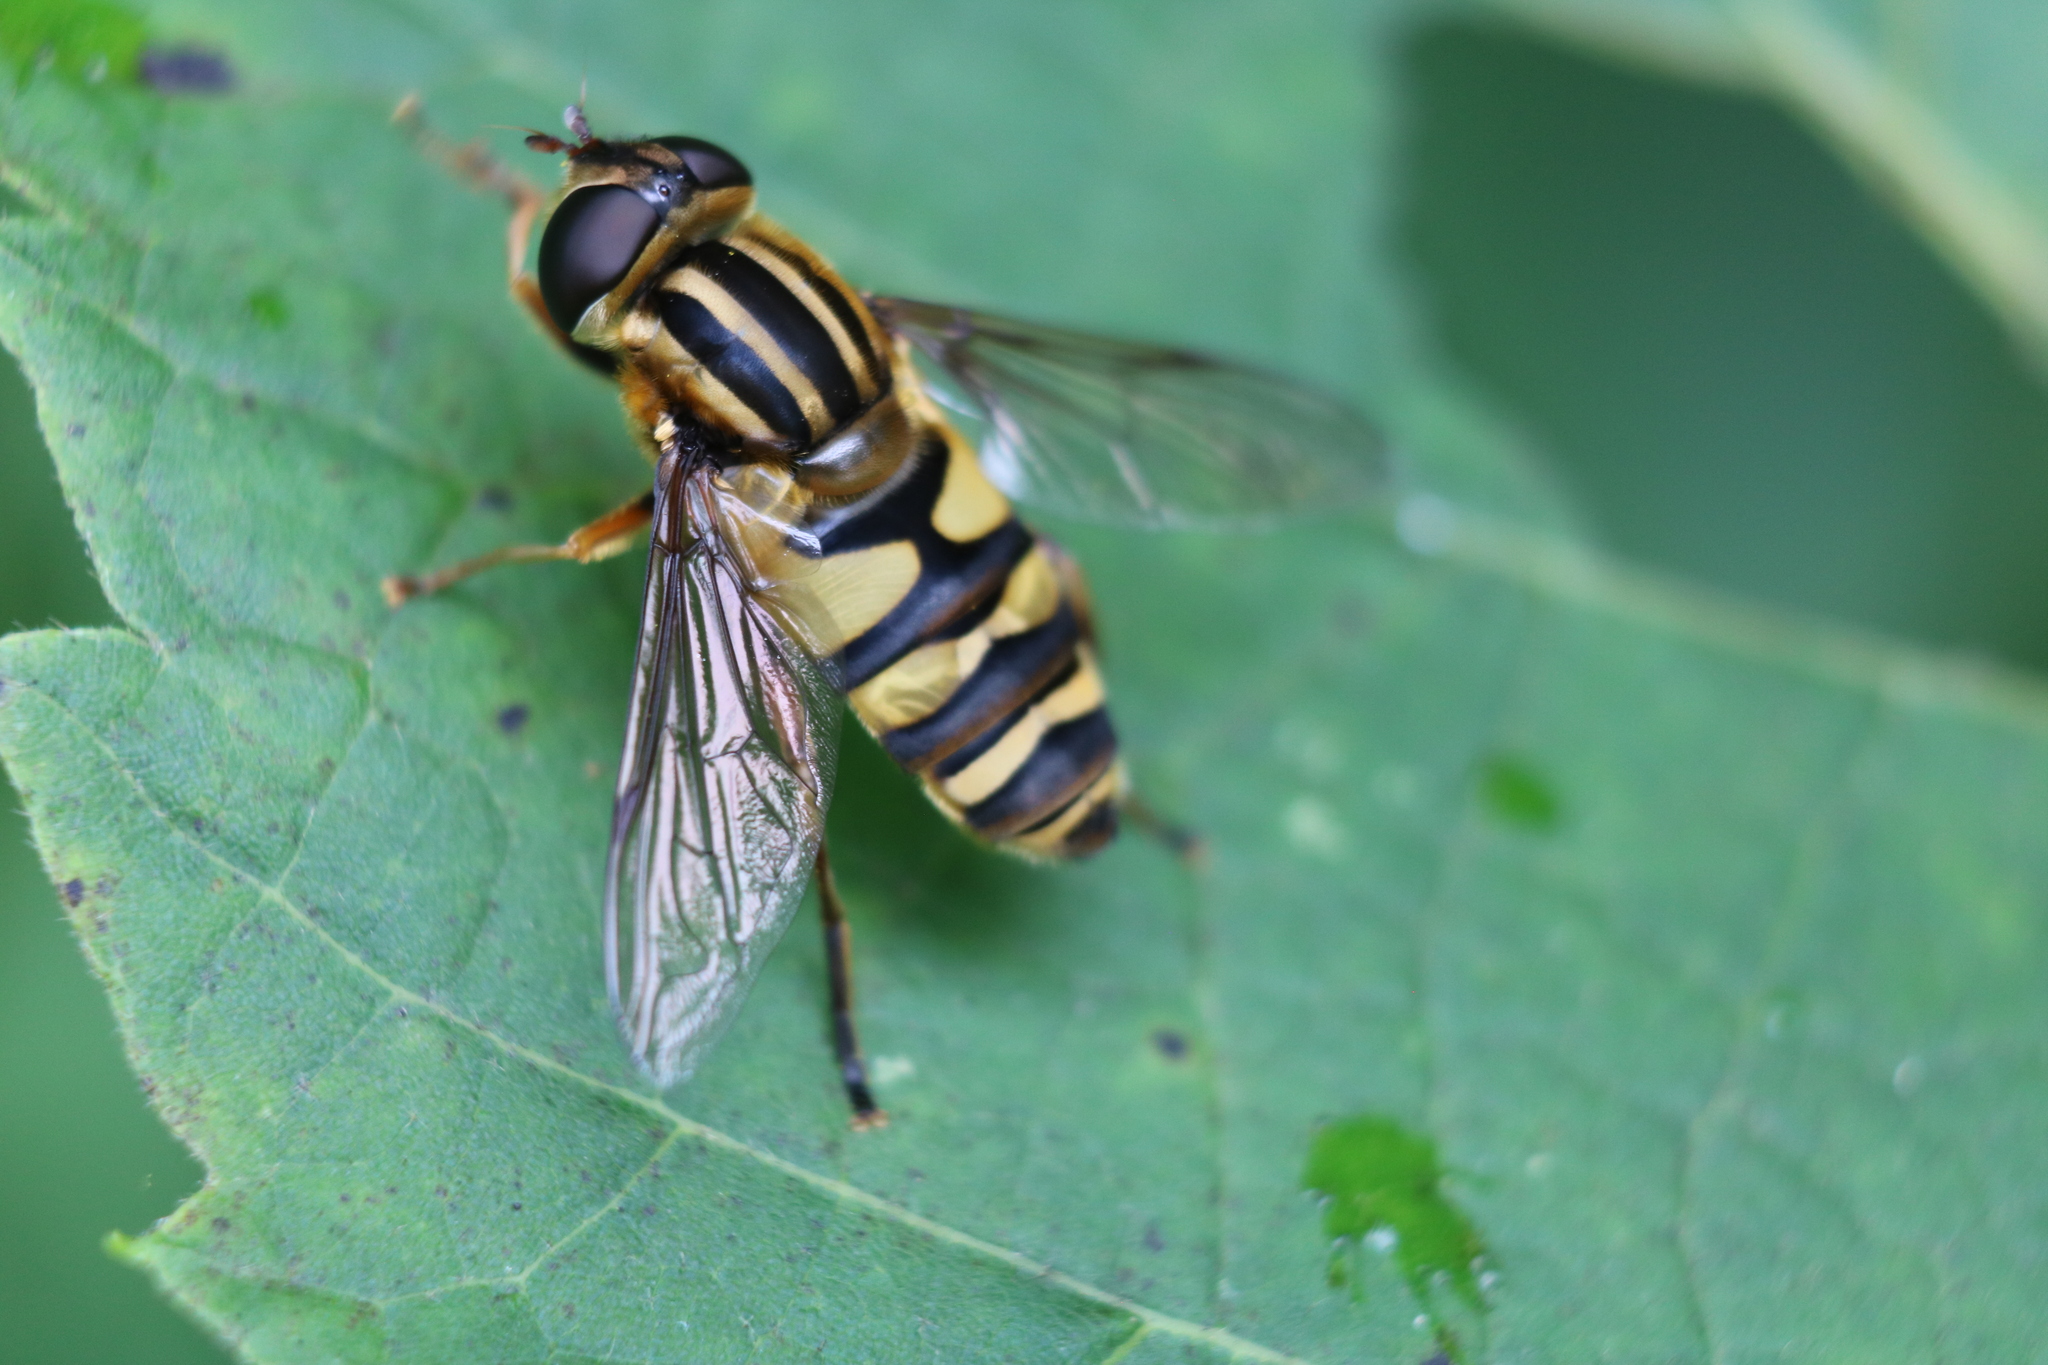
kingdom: Animalia
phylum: Arthropoda
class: Insecta
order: Diptera
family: Syrphidae
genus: Helophilus
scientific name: Helophilus fasciatus
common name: Narrow-headed marsh fly
